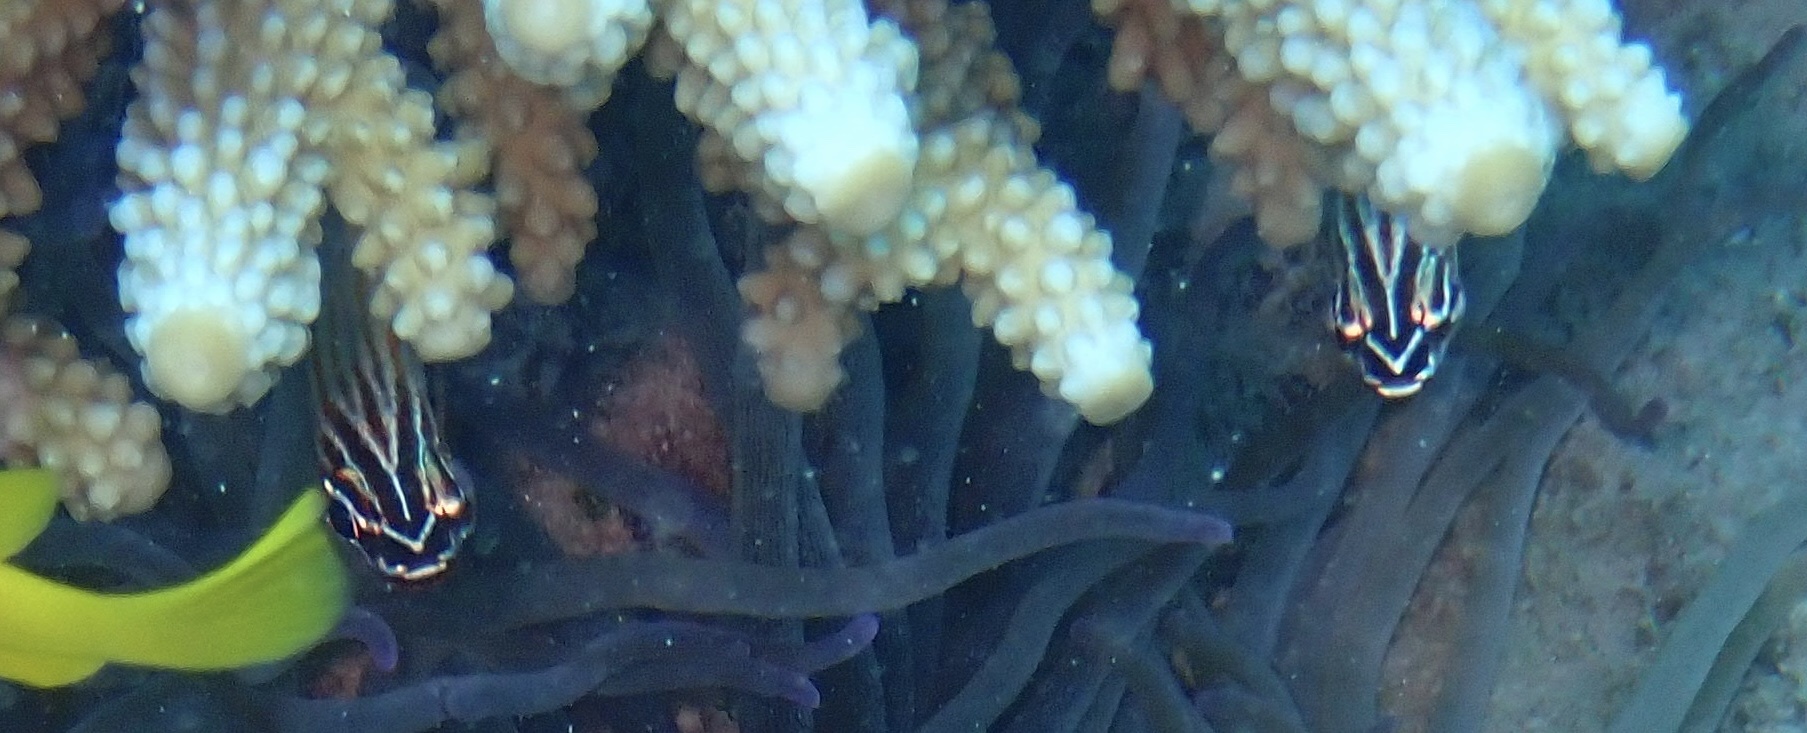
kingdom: Animalia
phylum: Chordata
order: Perciformes
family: Apogonidae
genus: Ostorhinchus
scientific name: Ostorhinchus cyanosoma
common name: Yellow-striped cardinalfish
